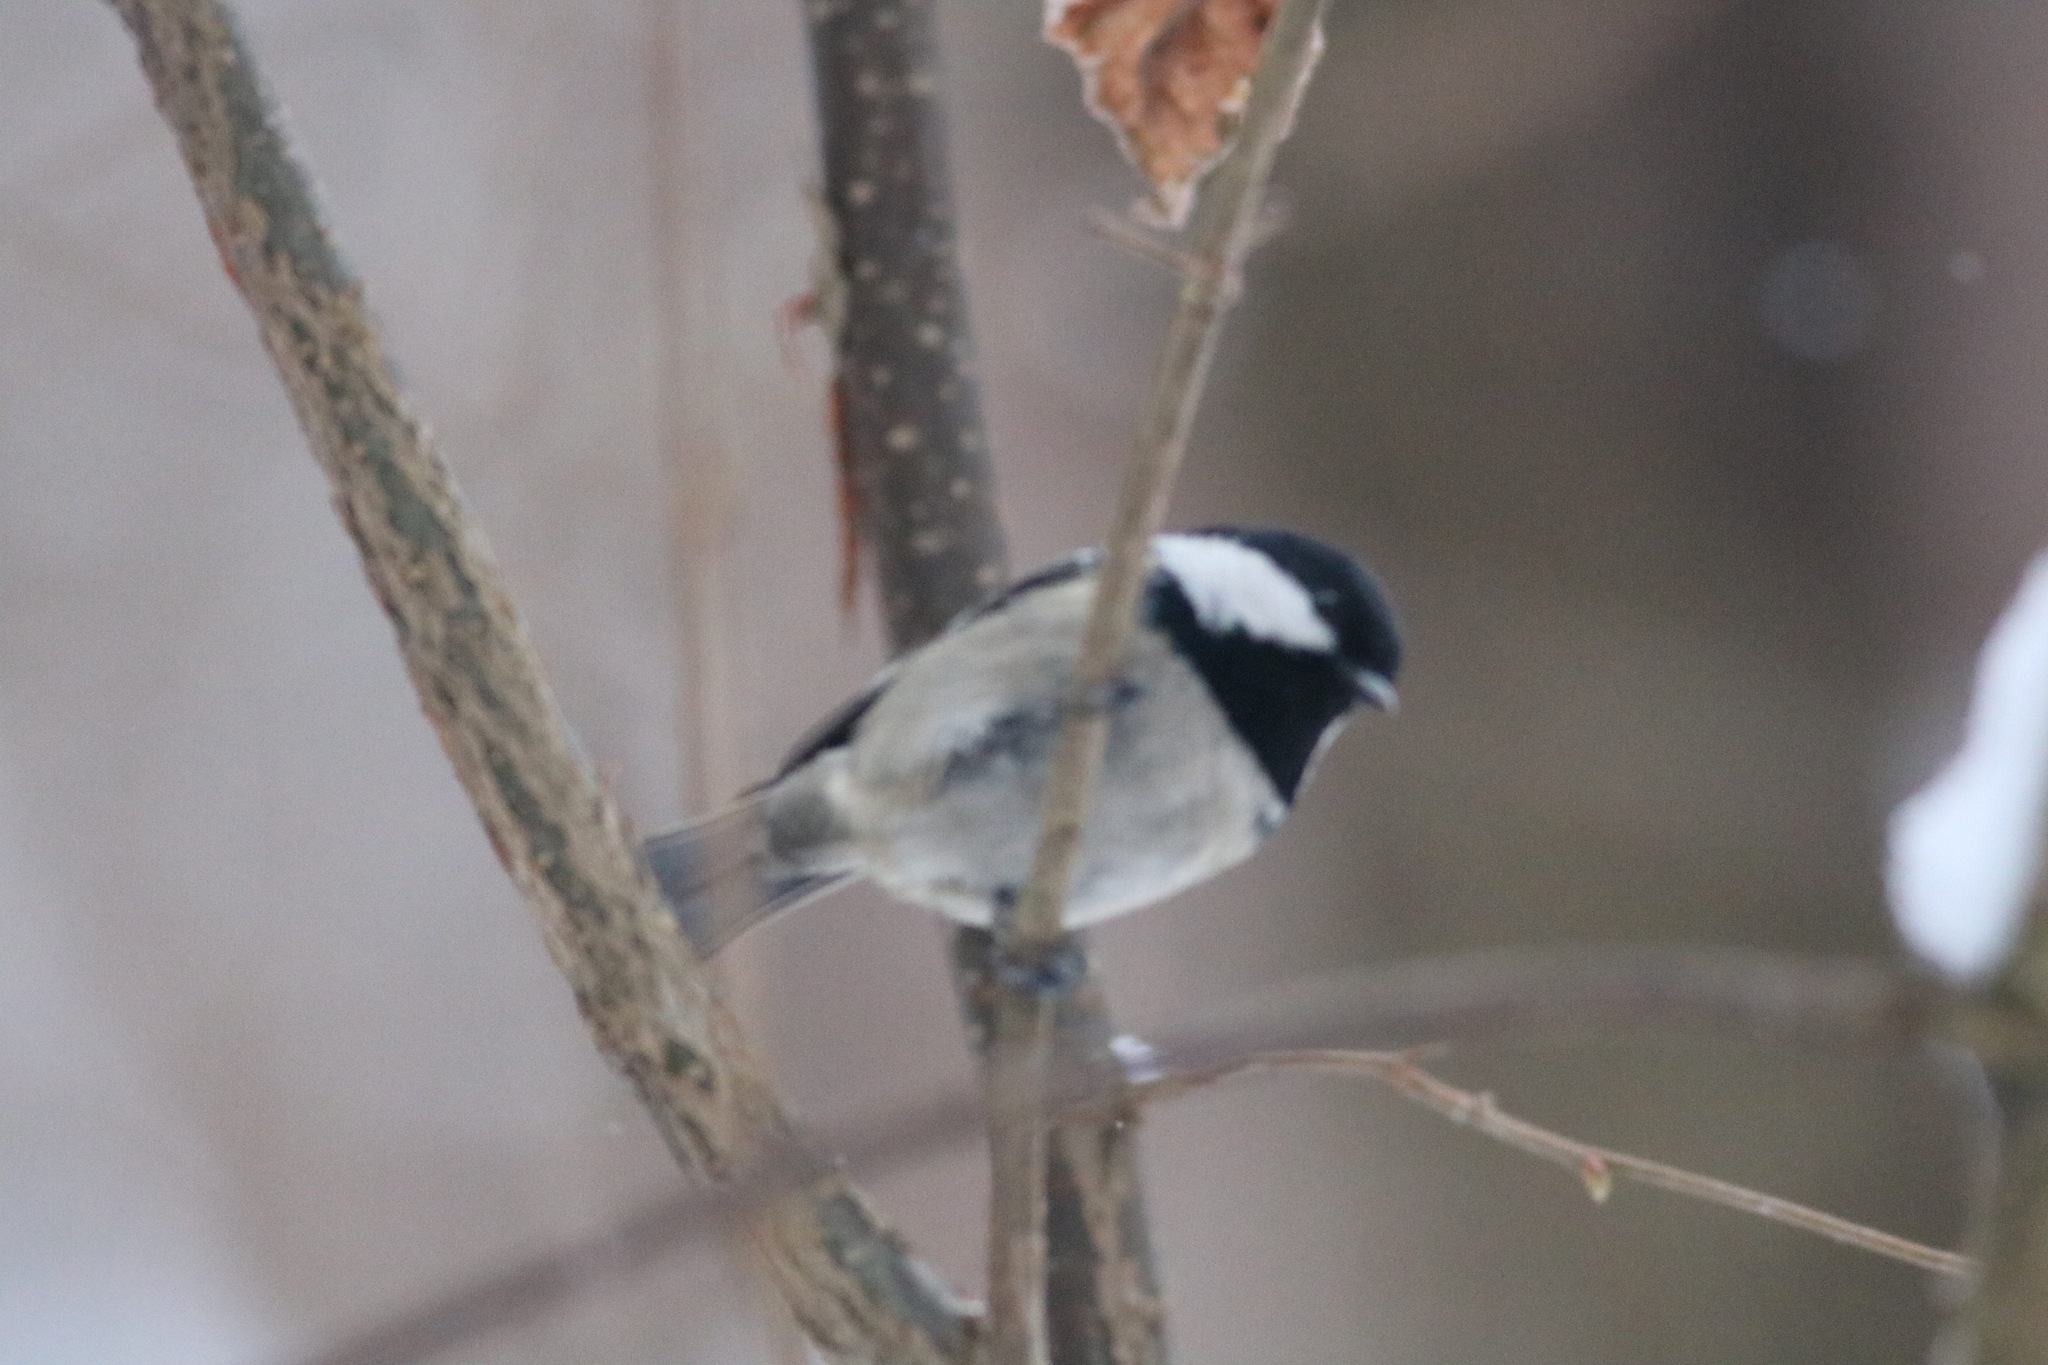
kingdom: Animalia
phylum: Chordata
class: Aves
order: Passeriformes
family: Paridae
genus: Periparus
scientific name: Periparus ater
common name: Coal tit
